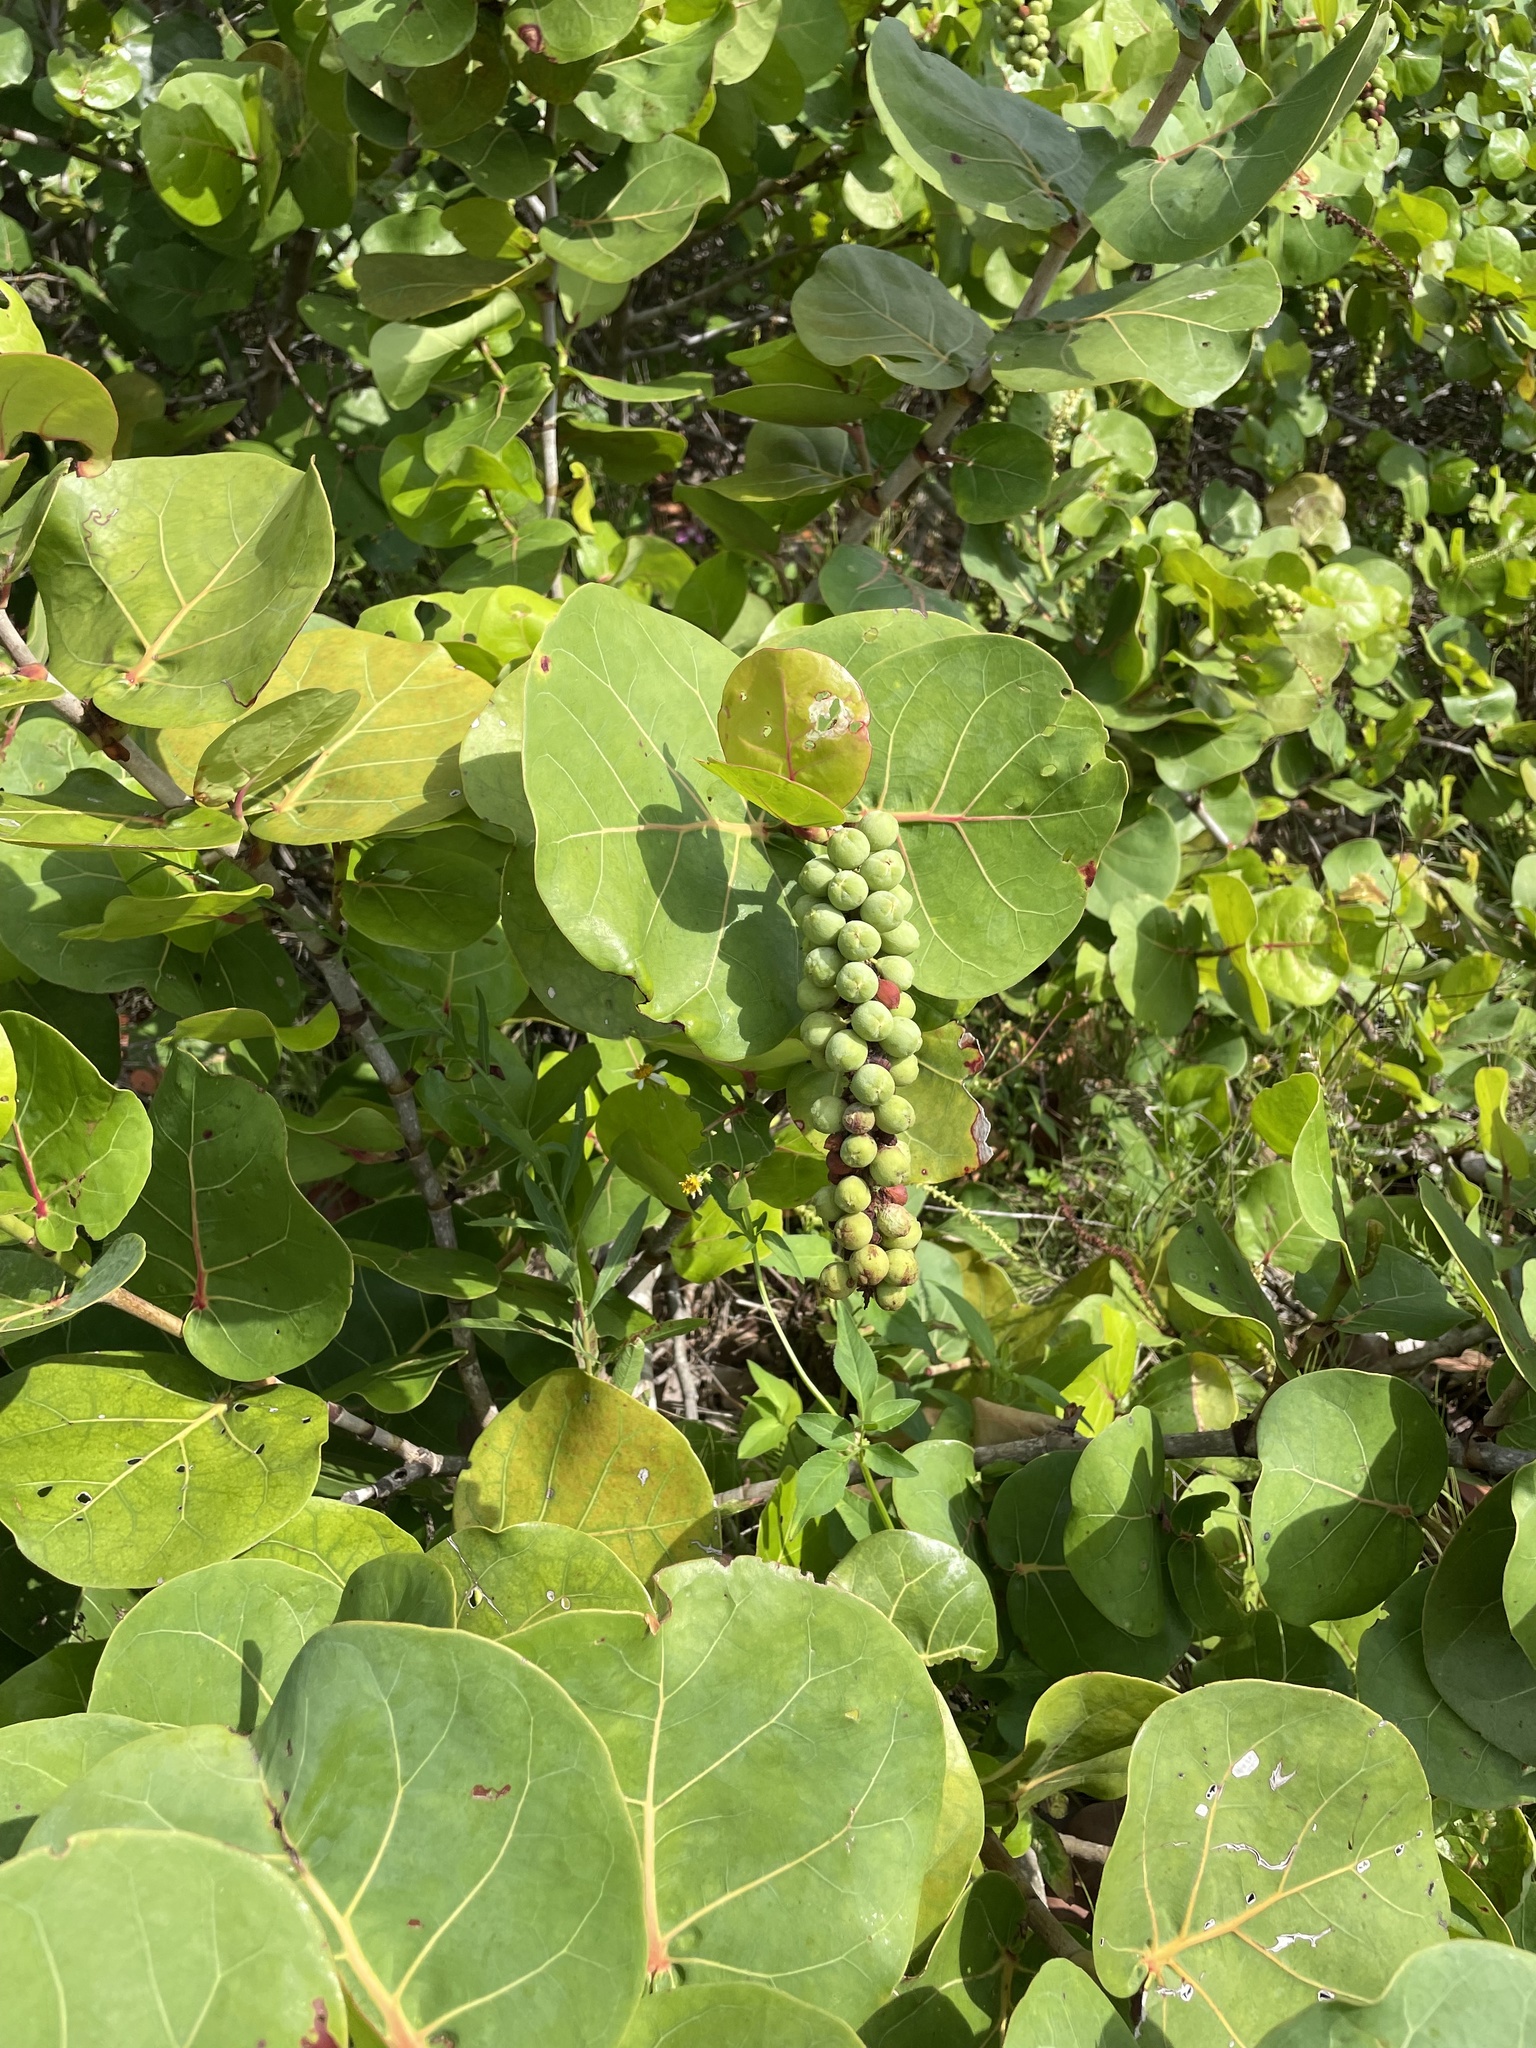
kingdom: Plantae
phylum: Tracheophyta
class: Magnoliopsida
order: Caryophyllales
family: Polygonaceae
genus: Coccoloba
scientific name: Coccoloba uvifera
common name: Seagrape
